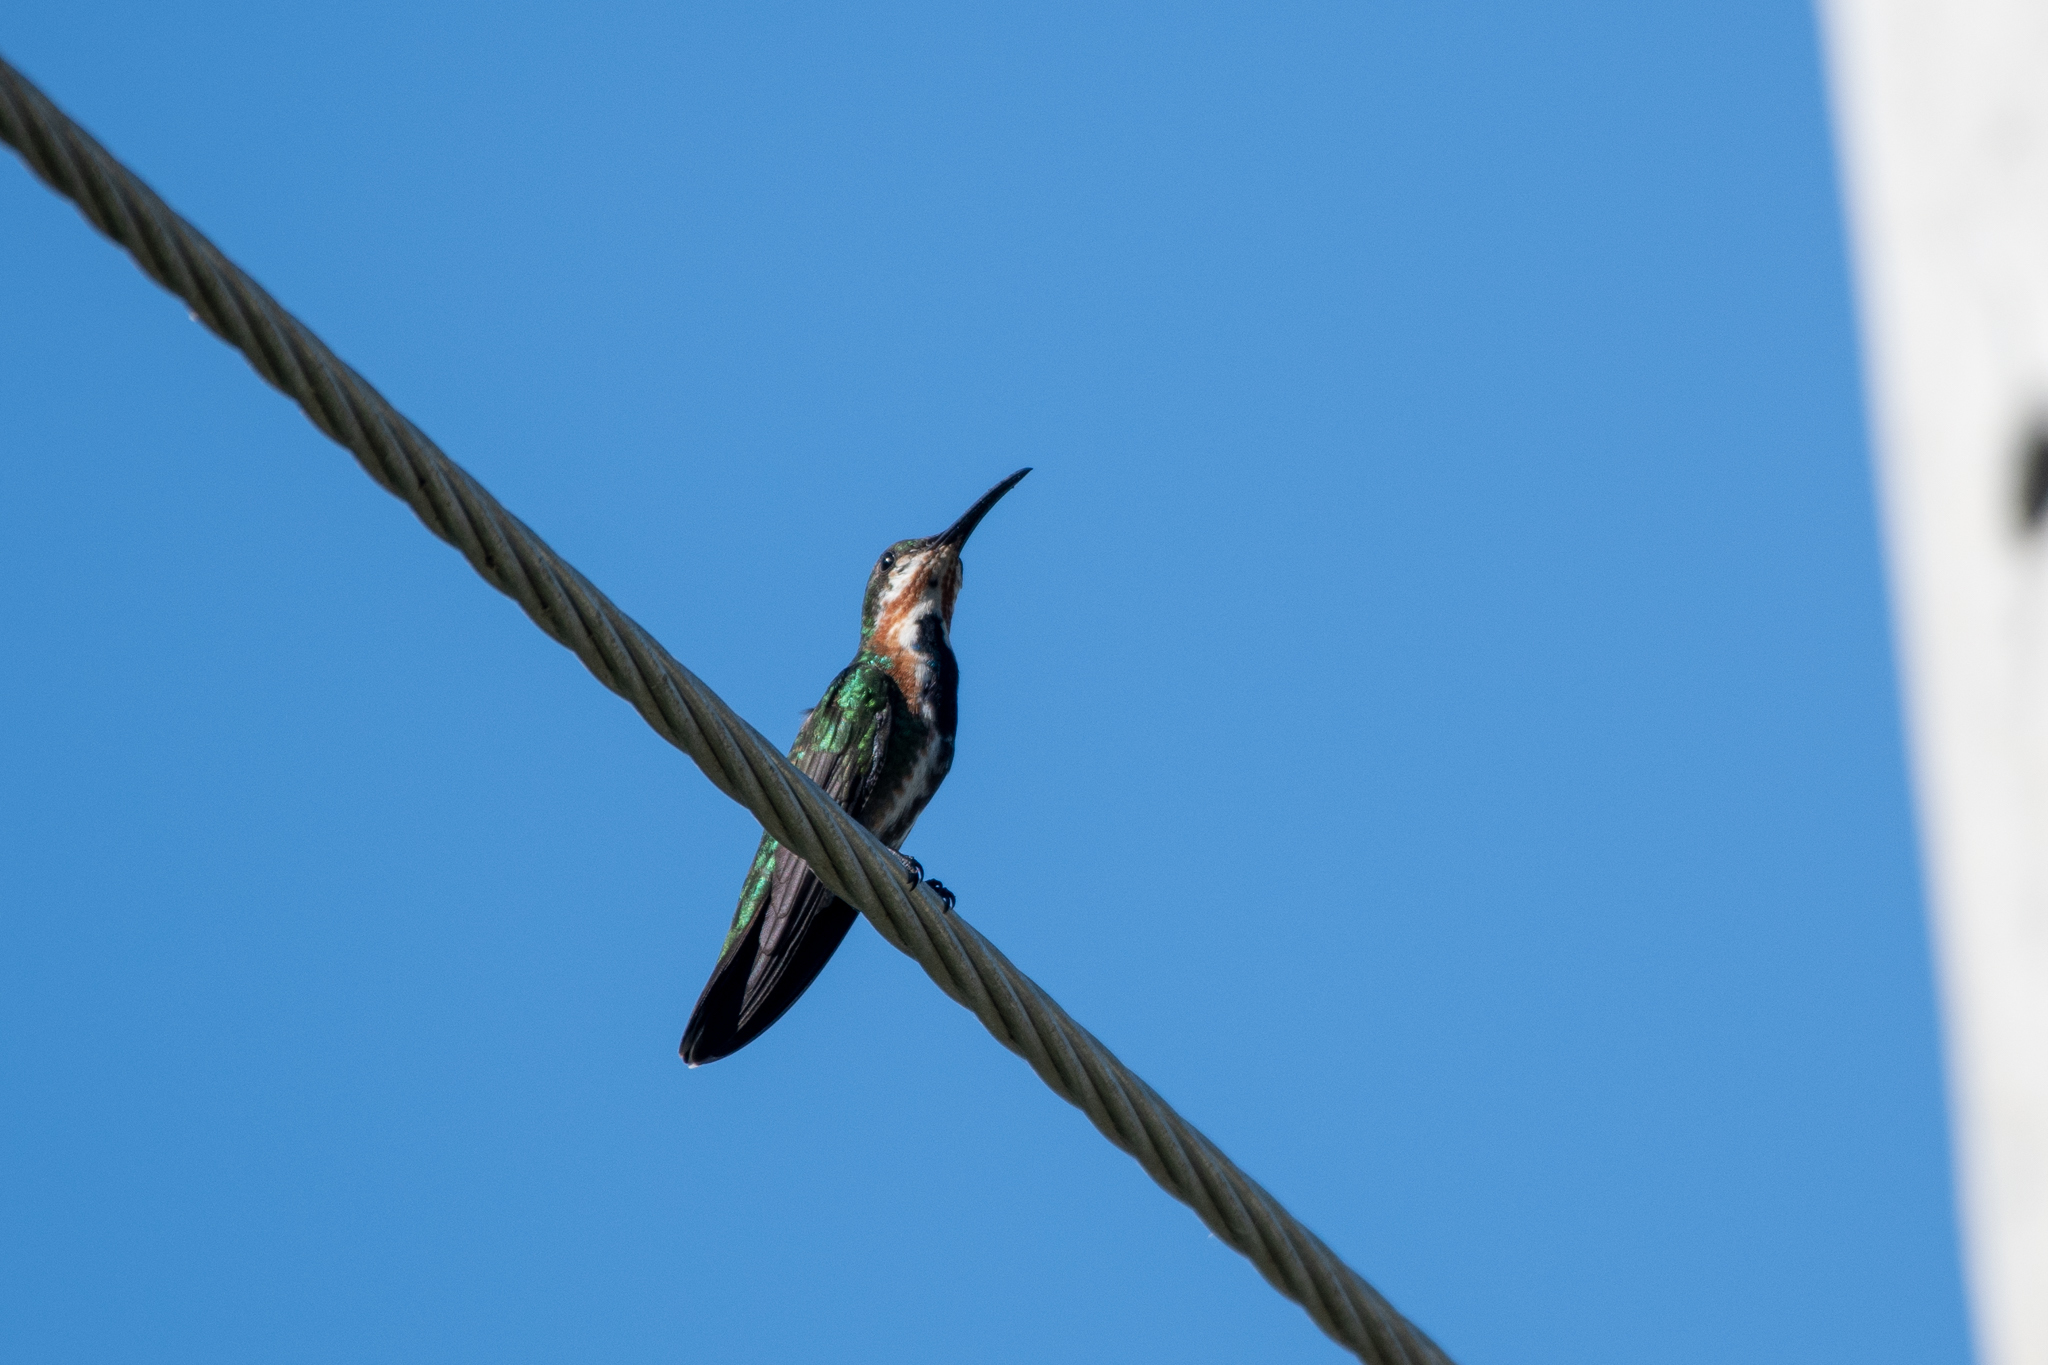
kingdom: Animalia
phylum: Chordata
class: Aves
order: Apodiformes
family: Trochilidae
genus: Anthracothorax
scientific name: Anthracothorax prevostii
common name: Green-breasted mango
